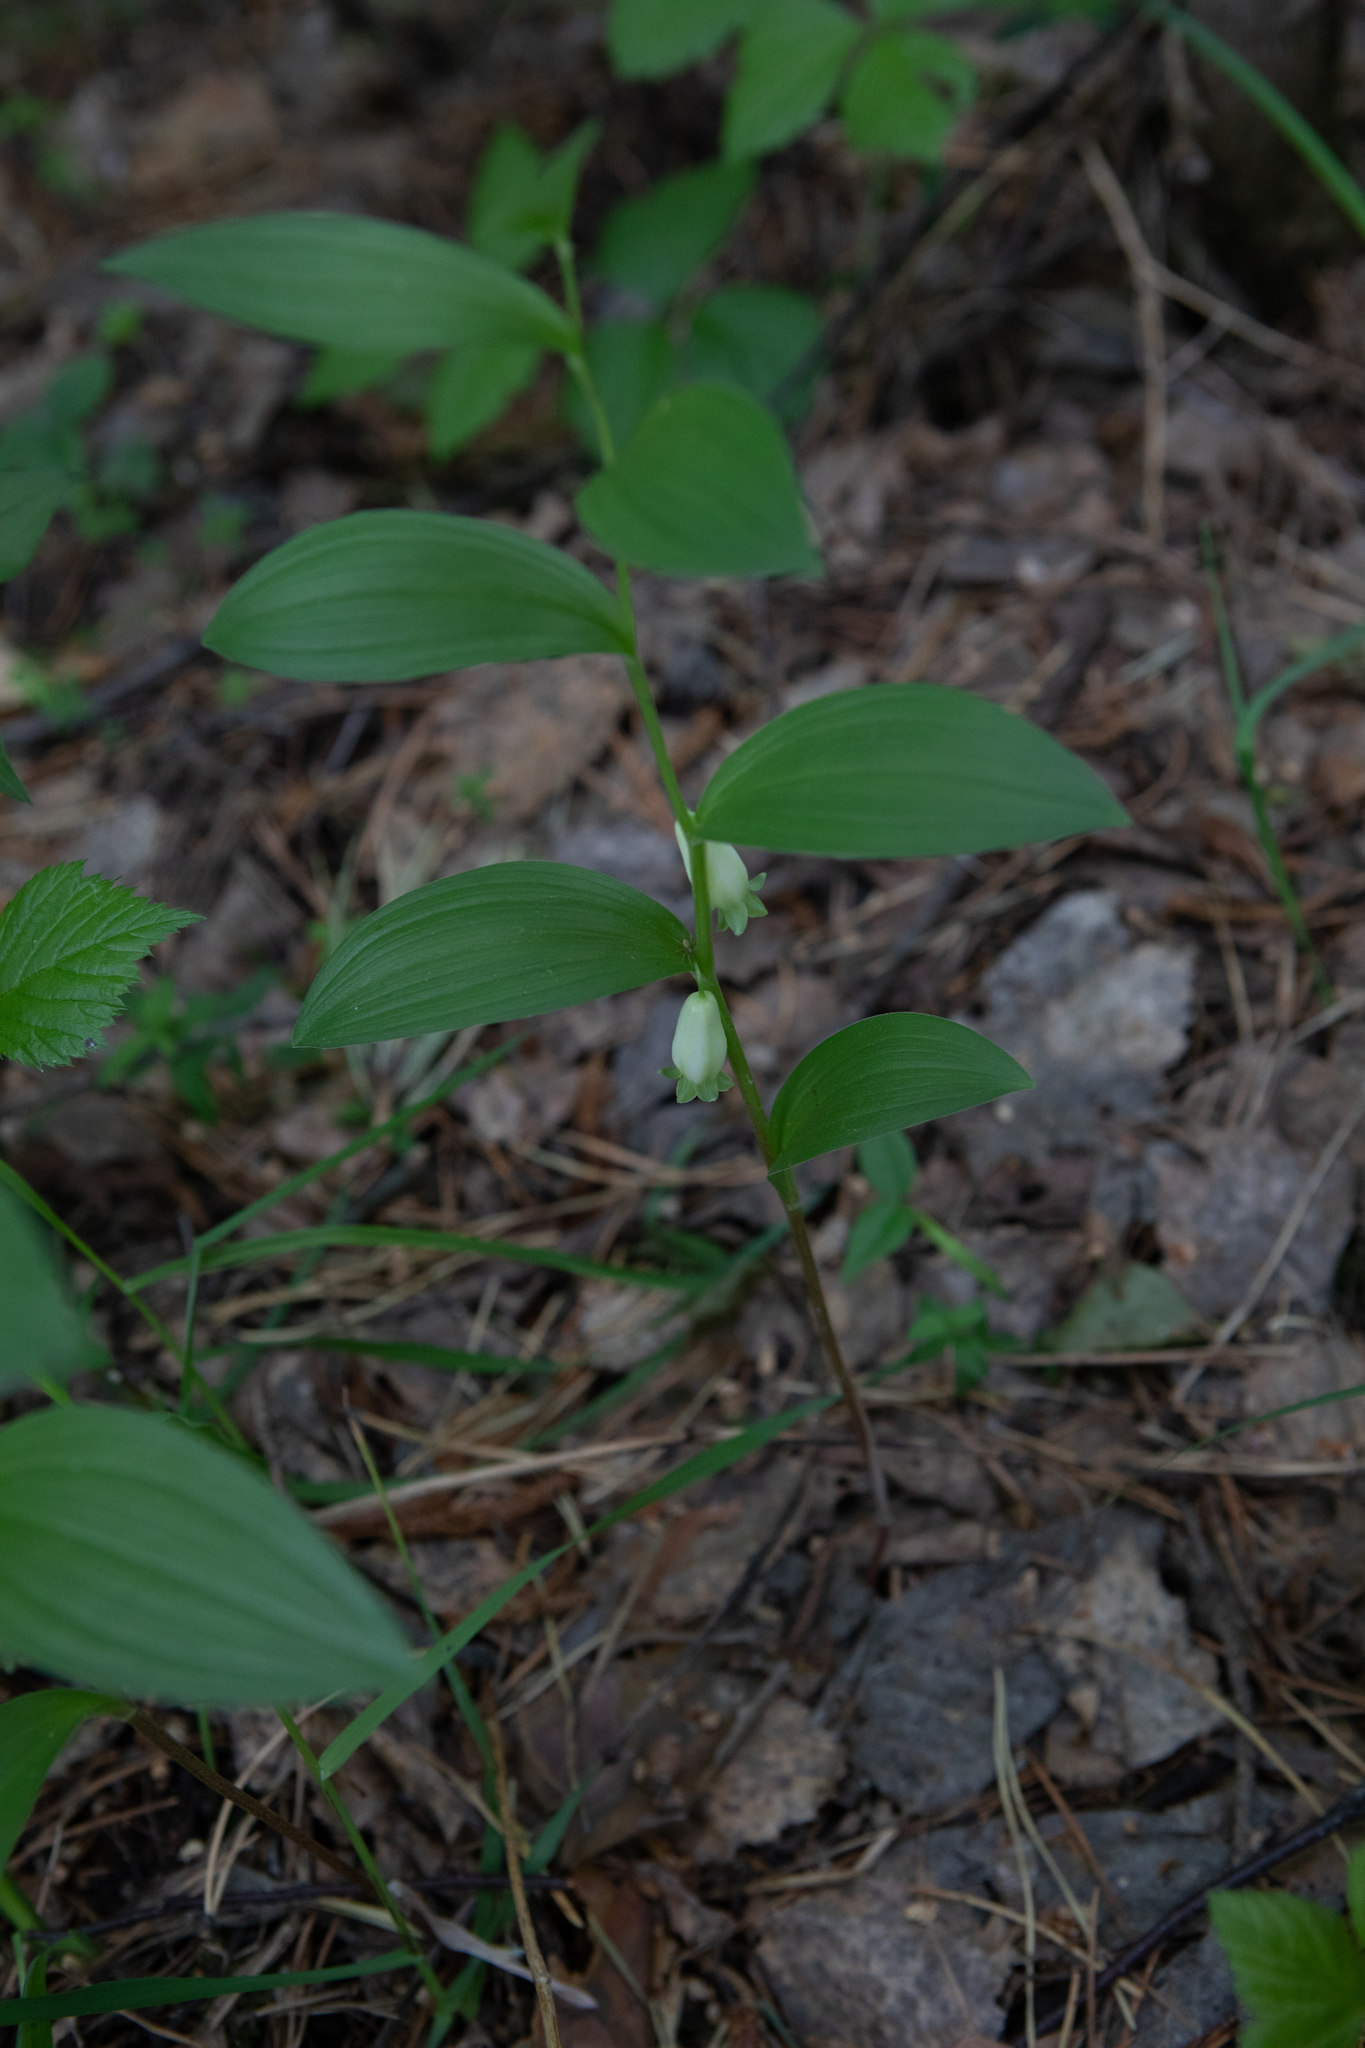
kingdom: Plantae
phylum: Tracheophyta
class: Liliopsida
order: Asparagales
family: Asparagaceae
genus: Polygonatum
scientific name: Polygonatum humile
